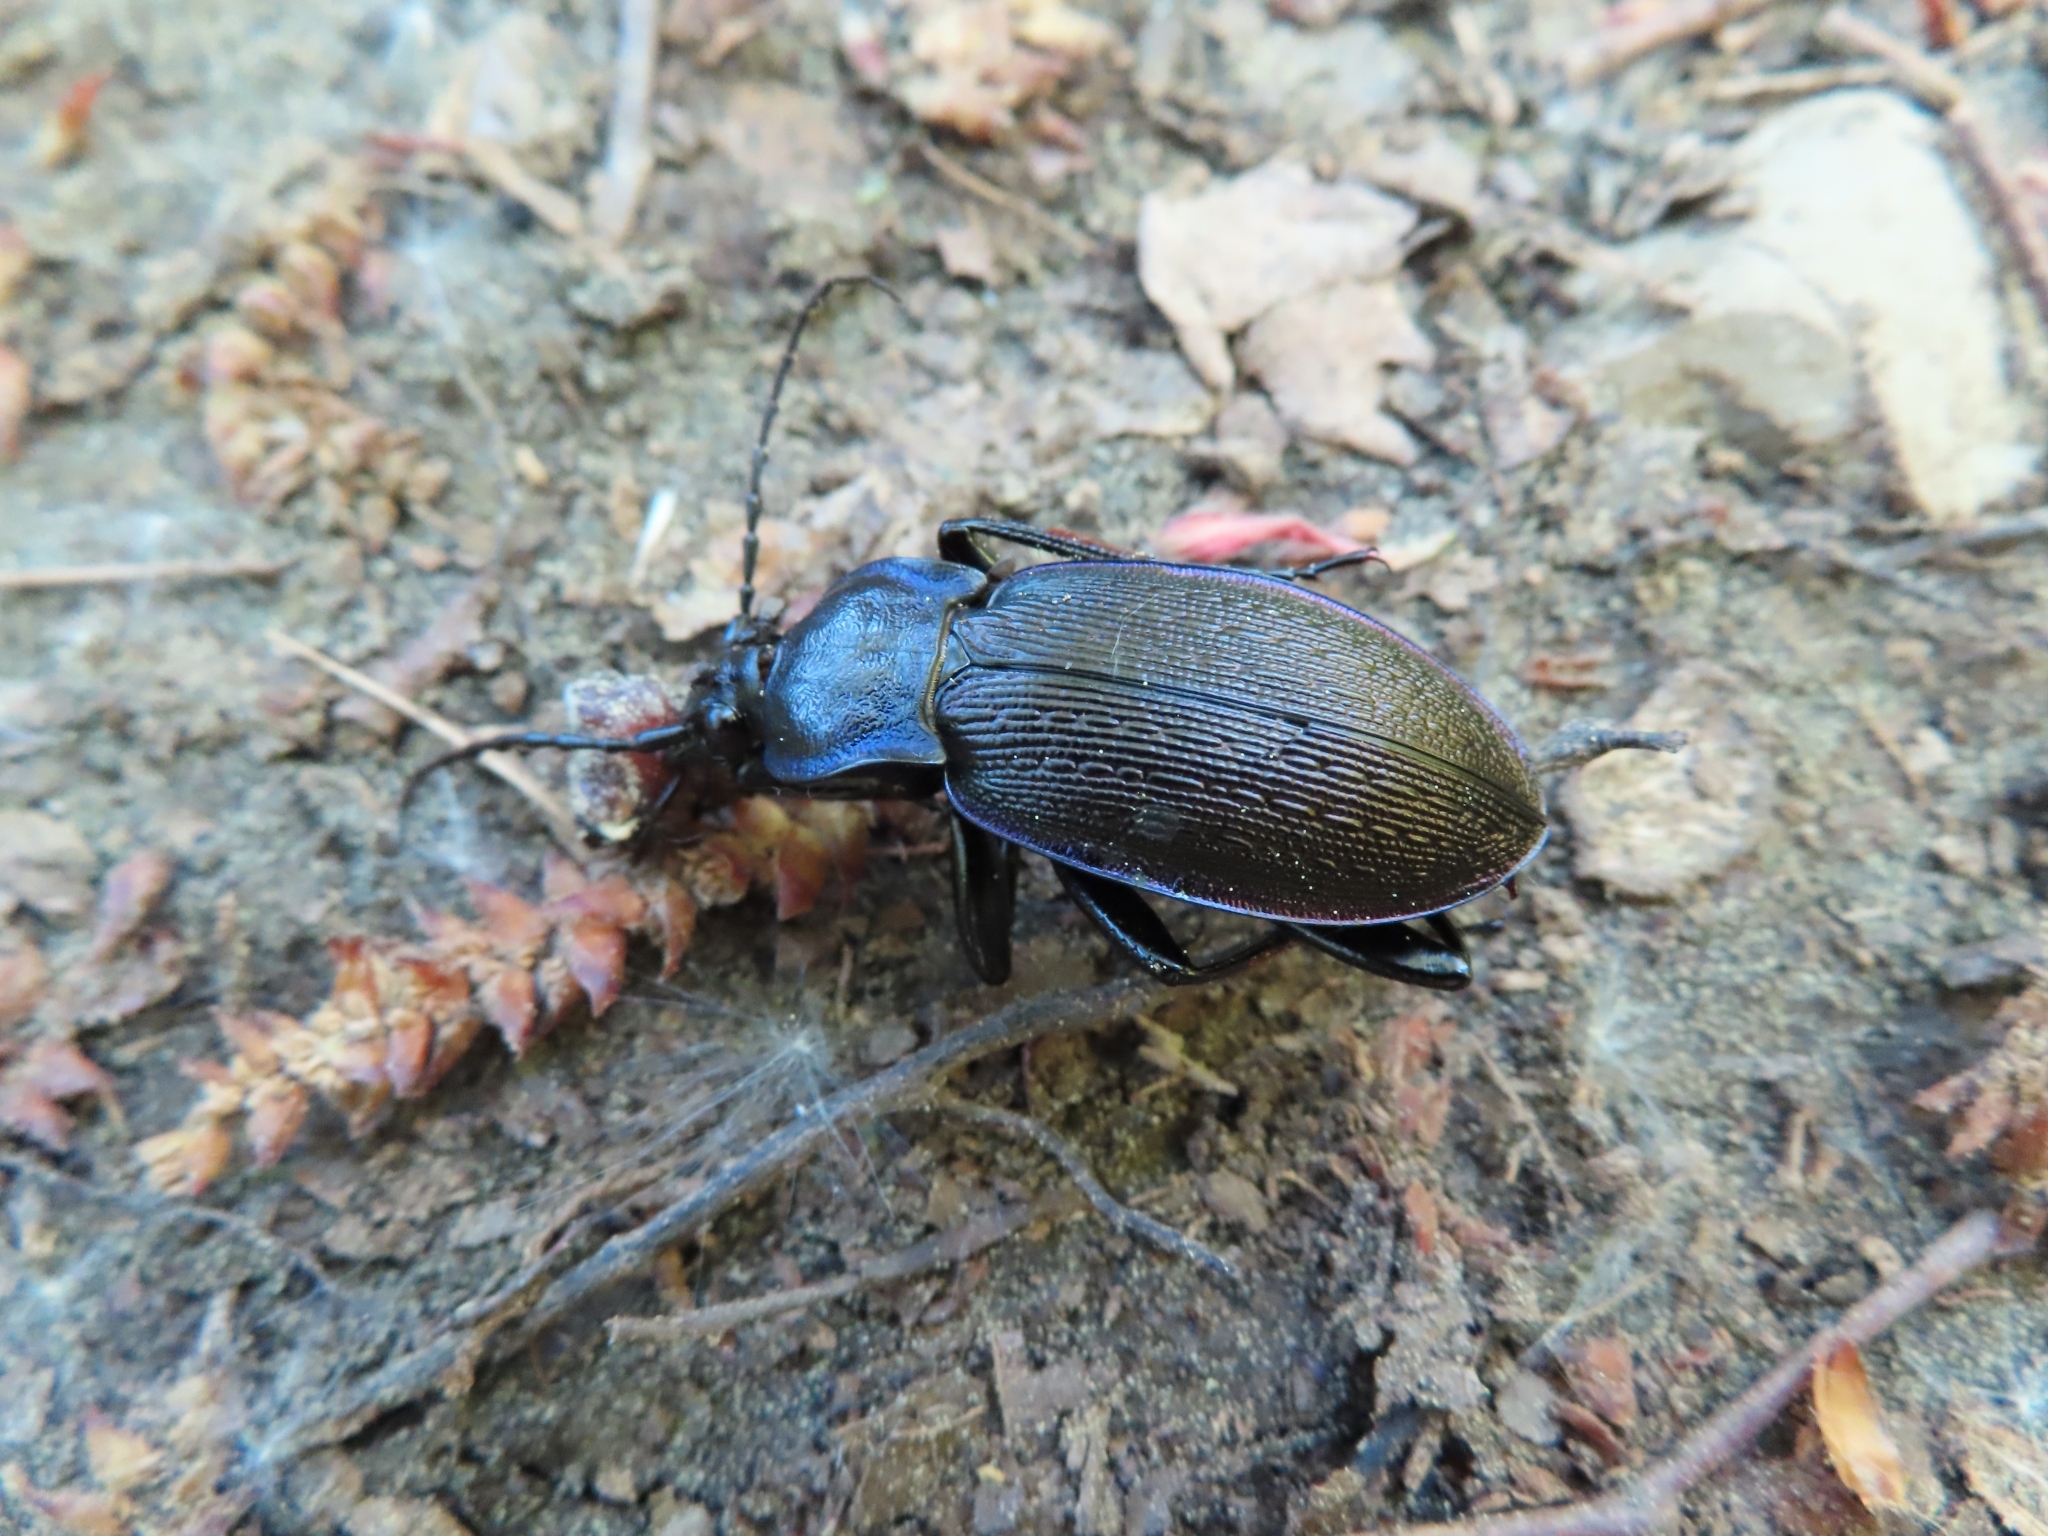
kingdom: Animalia
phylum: Arthropoda
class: Insecta
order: Coleoptera
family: Carabidae
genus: Carabus
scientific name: Carabus catenulatus
